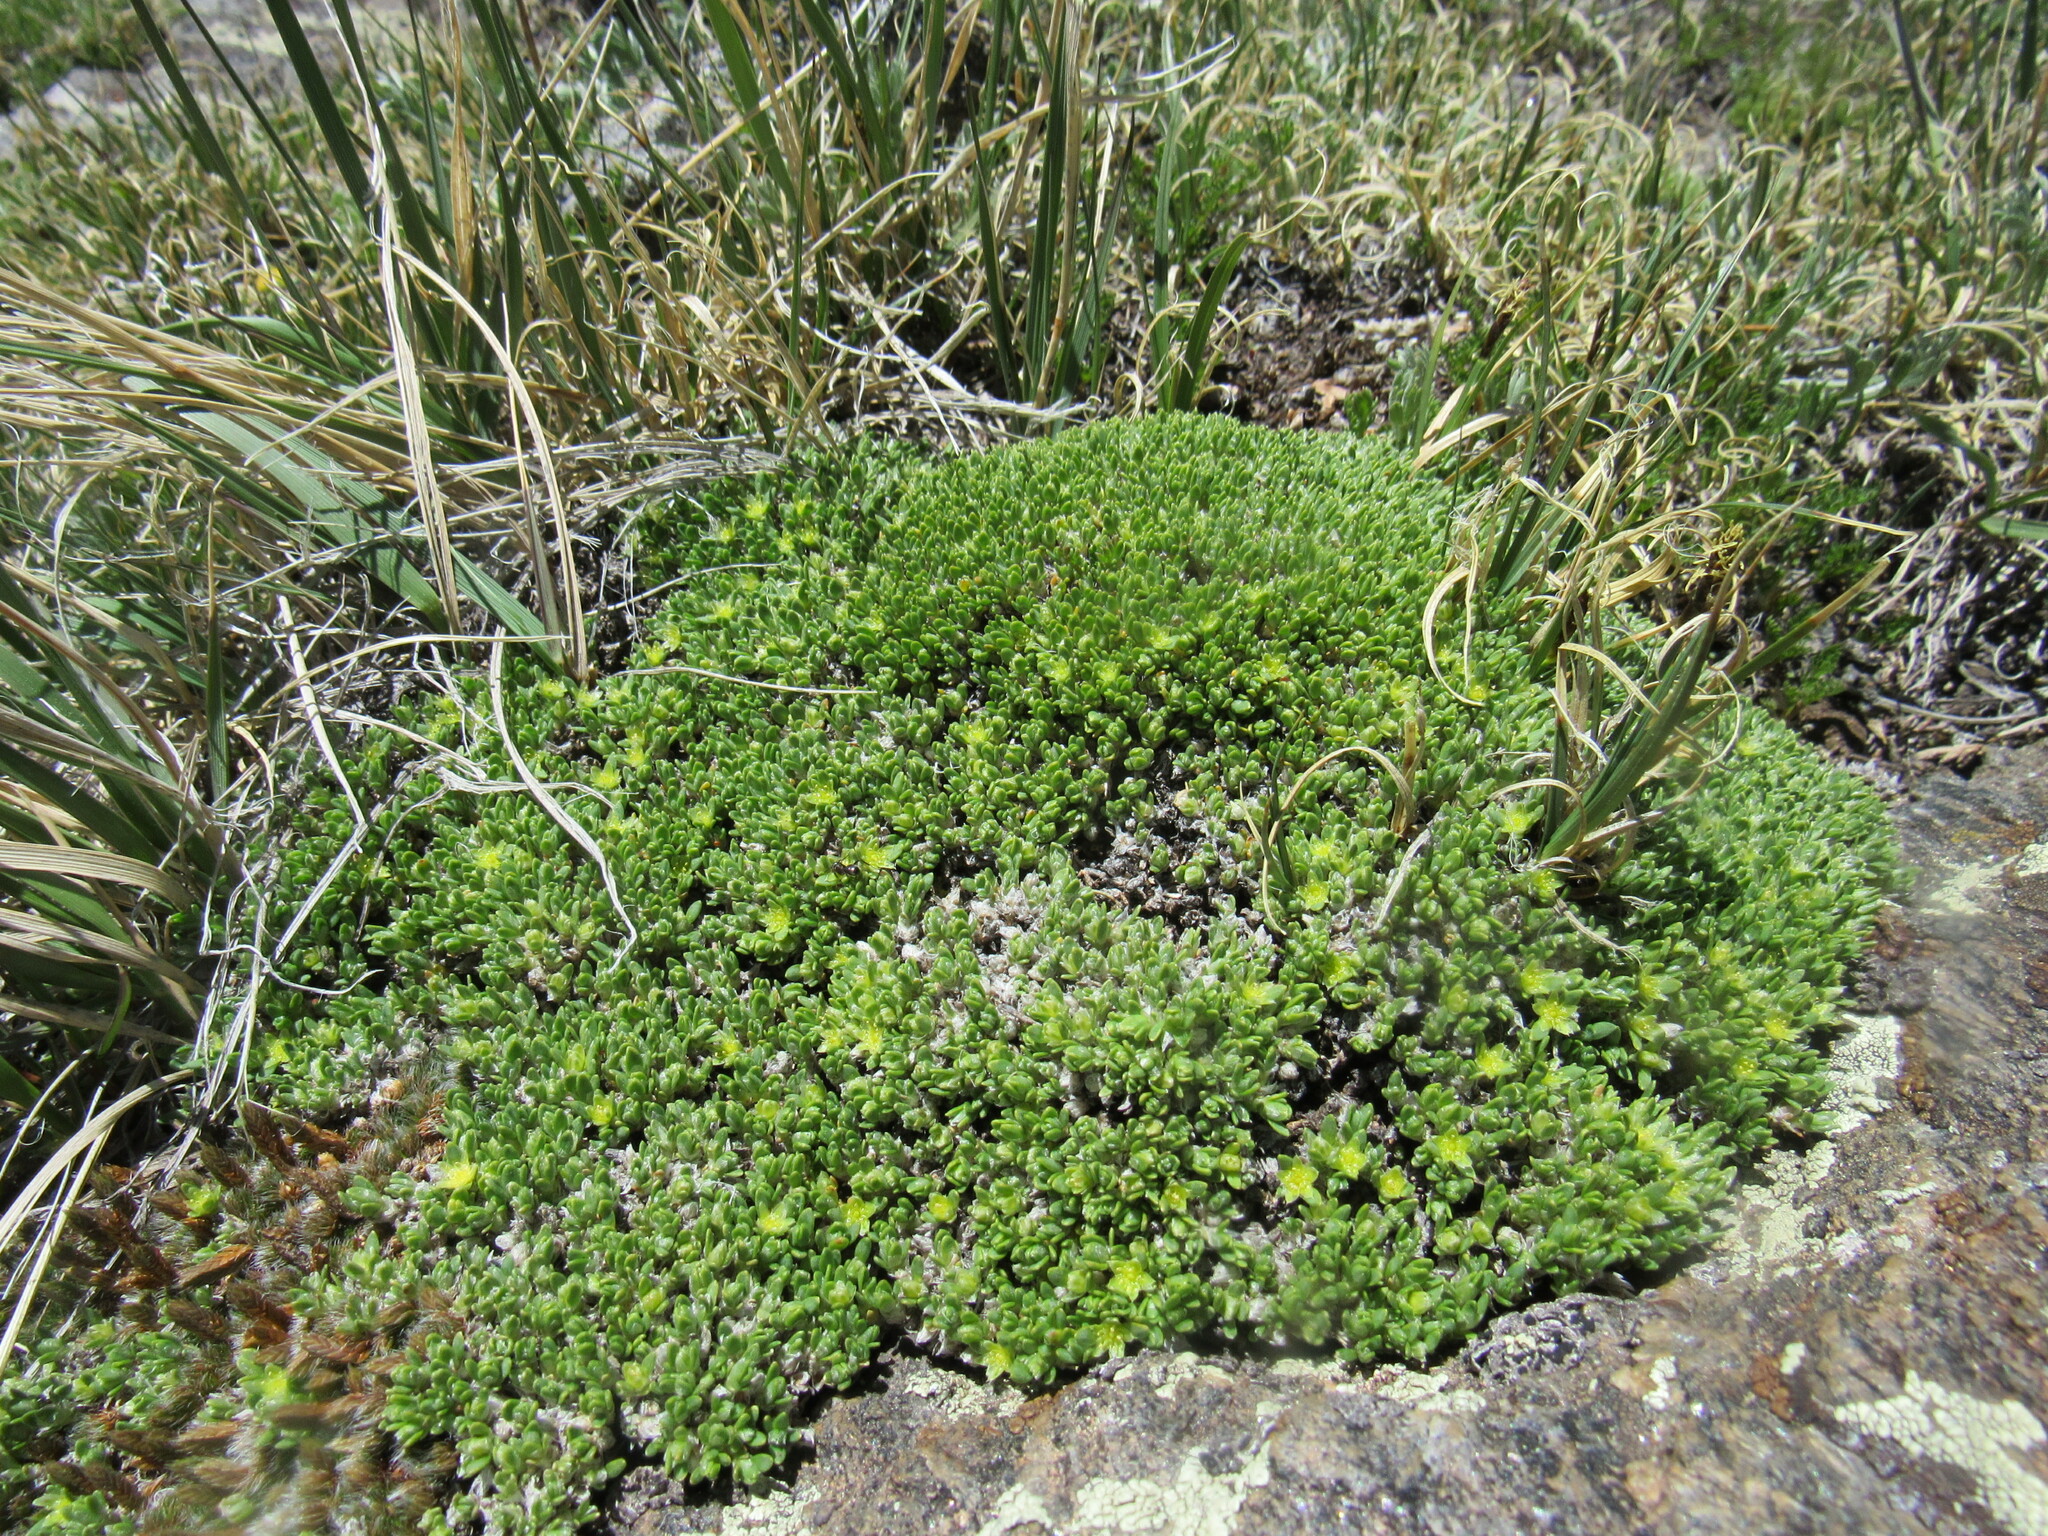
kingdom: Plantae
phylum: Tracheophyta
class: Magnoliopsida
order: Caryophyllales
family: Caryophyllaceae
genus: Paronychia
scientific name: Paronychia pulvinata
